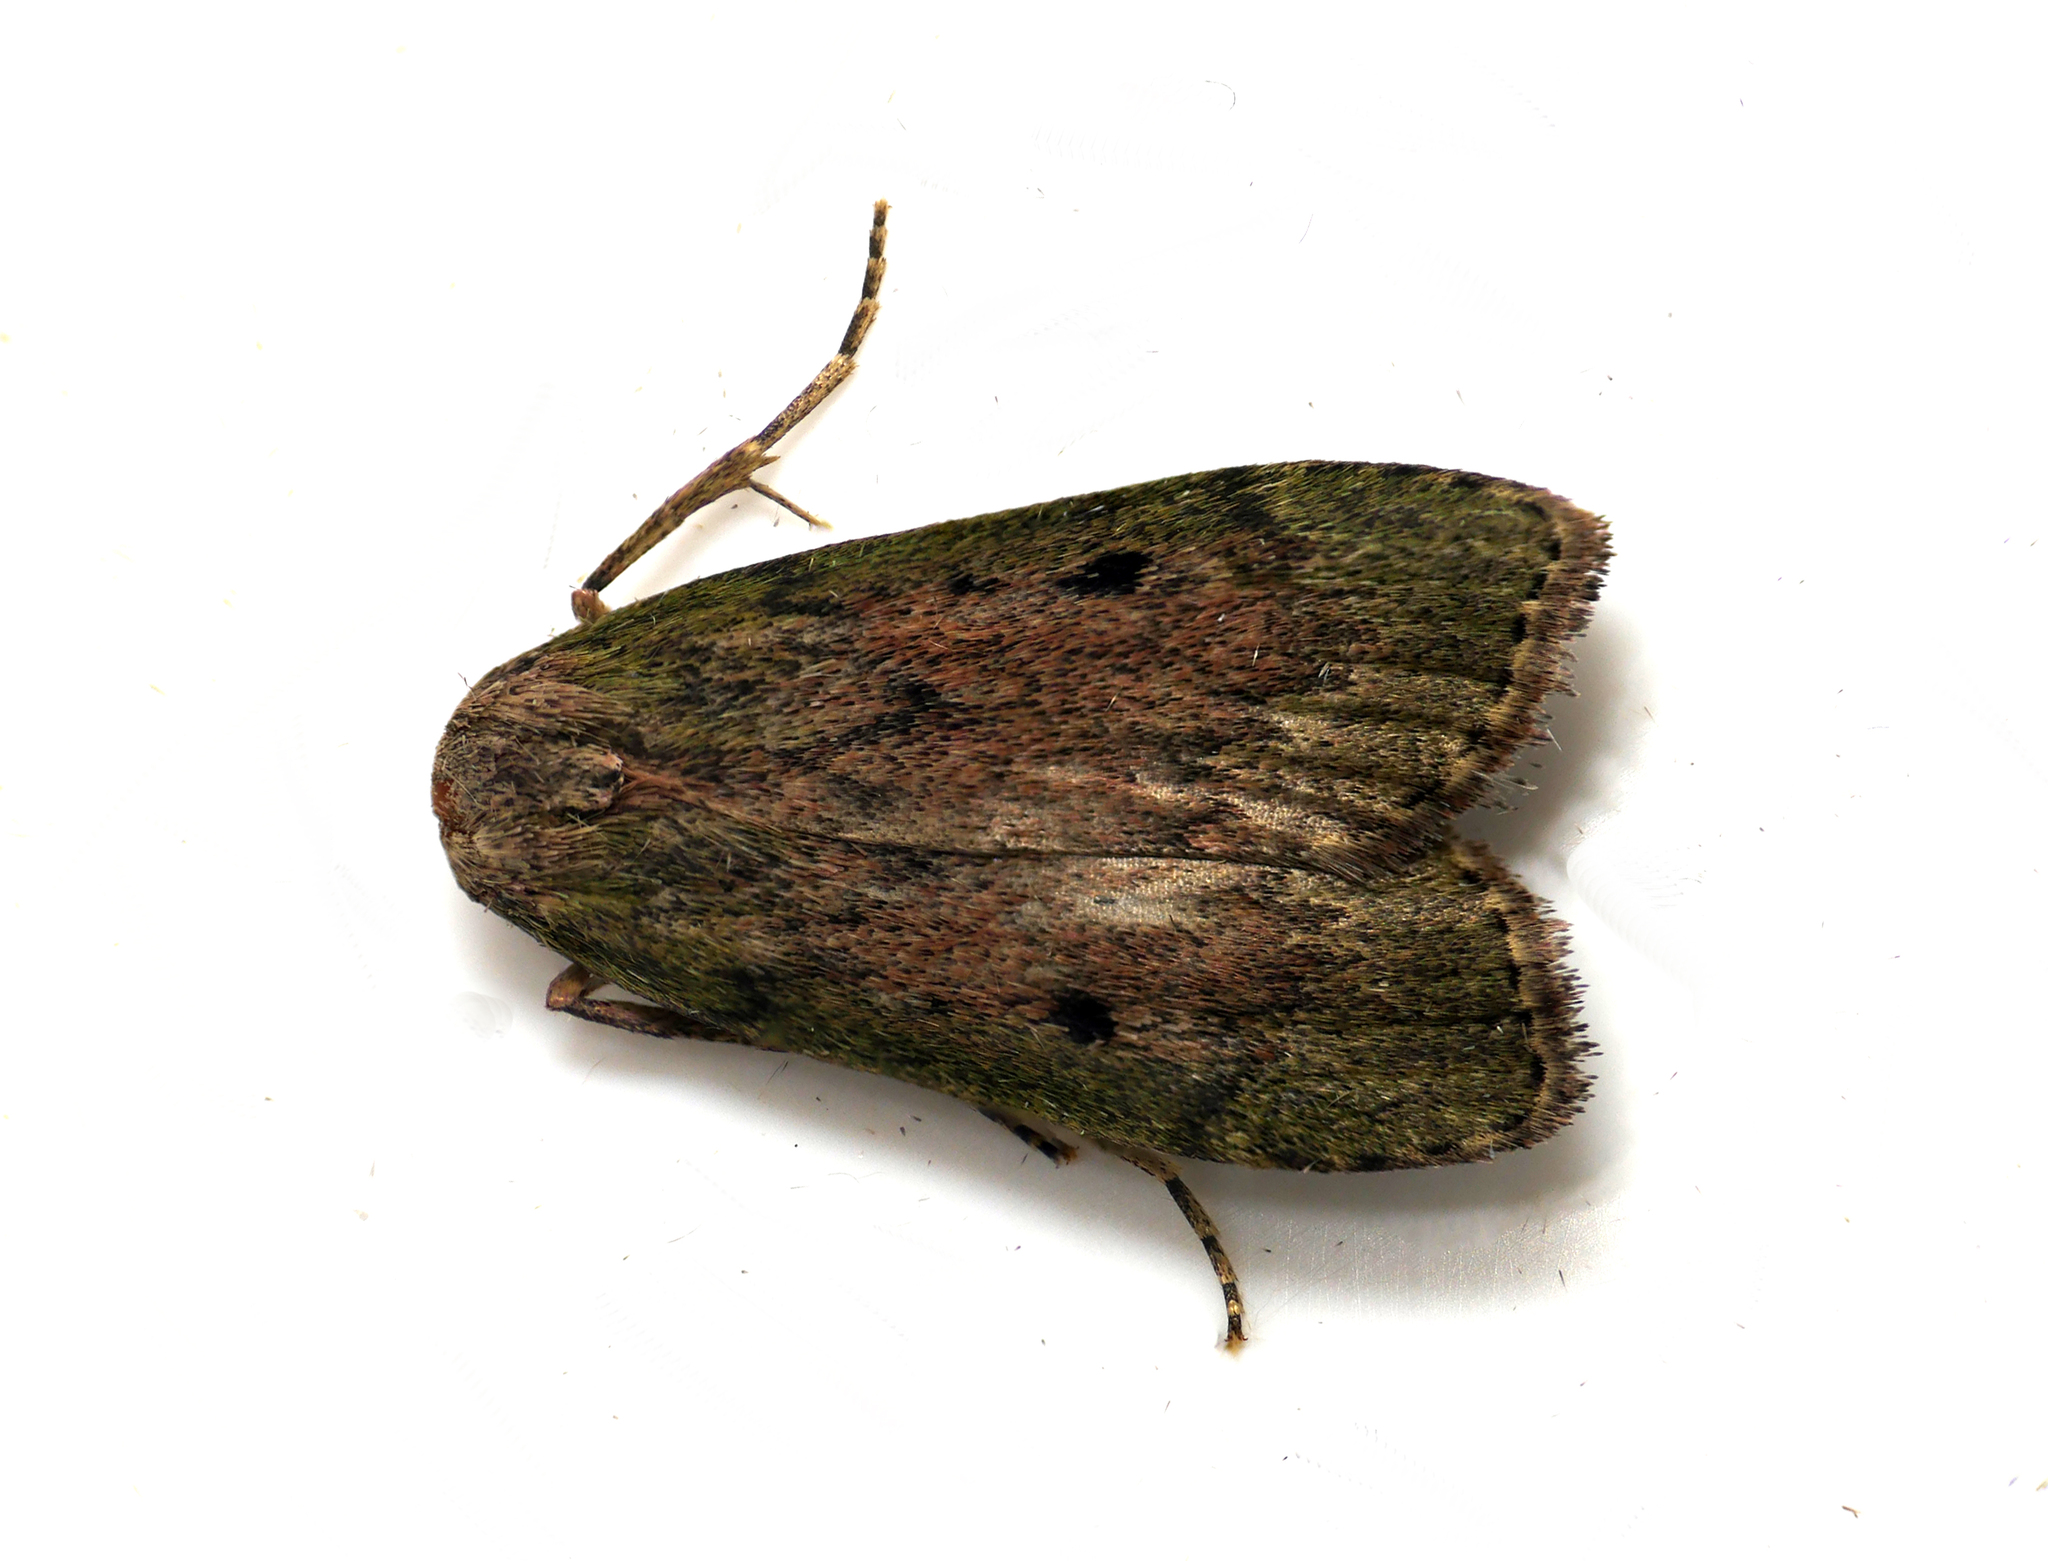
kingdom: Animalia
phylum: Arthropoda
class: Insecta
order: Lepidoptera
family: Pyralidae
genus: Aphomia
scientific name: Aphomia sociella
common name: Bee moth
